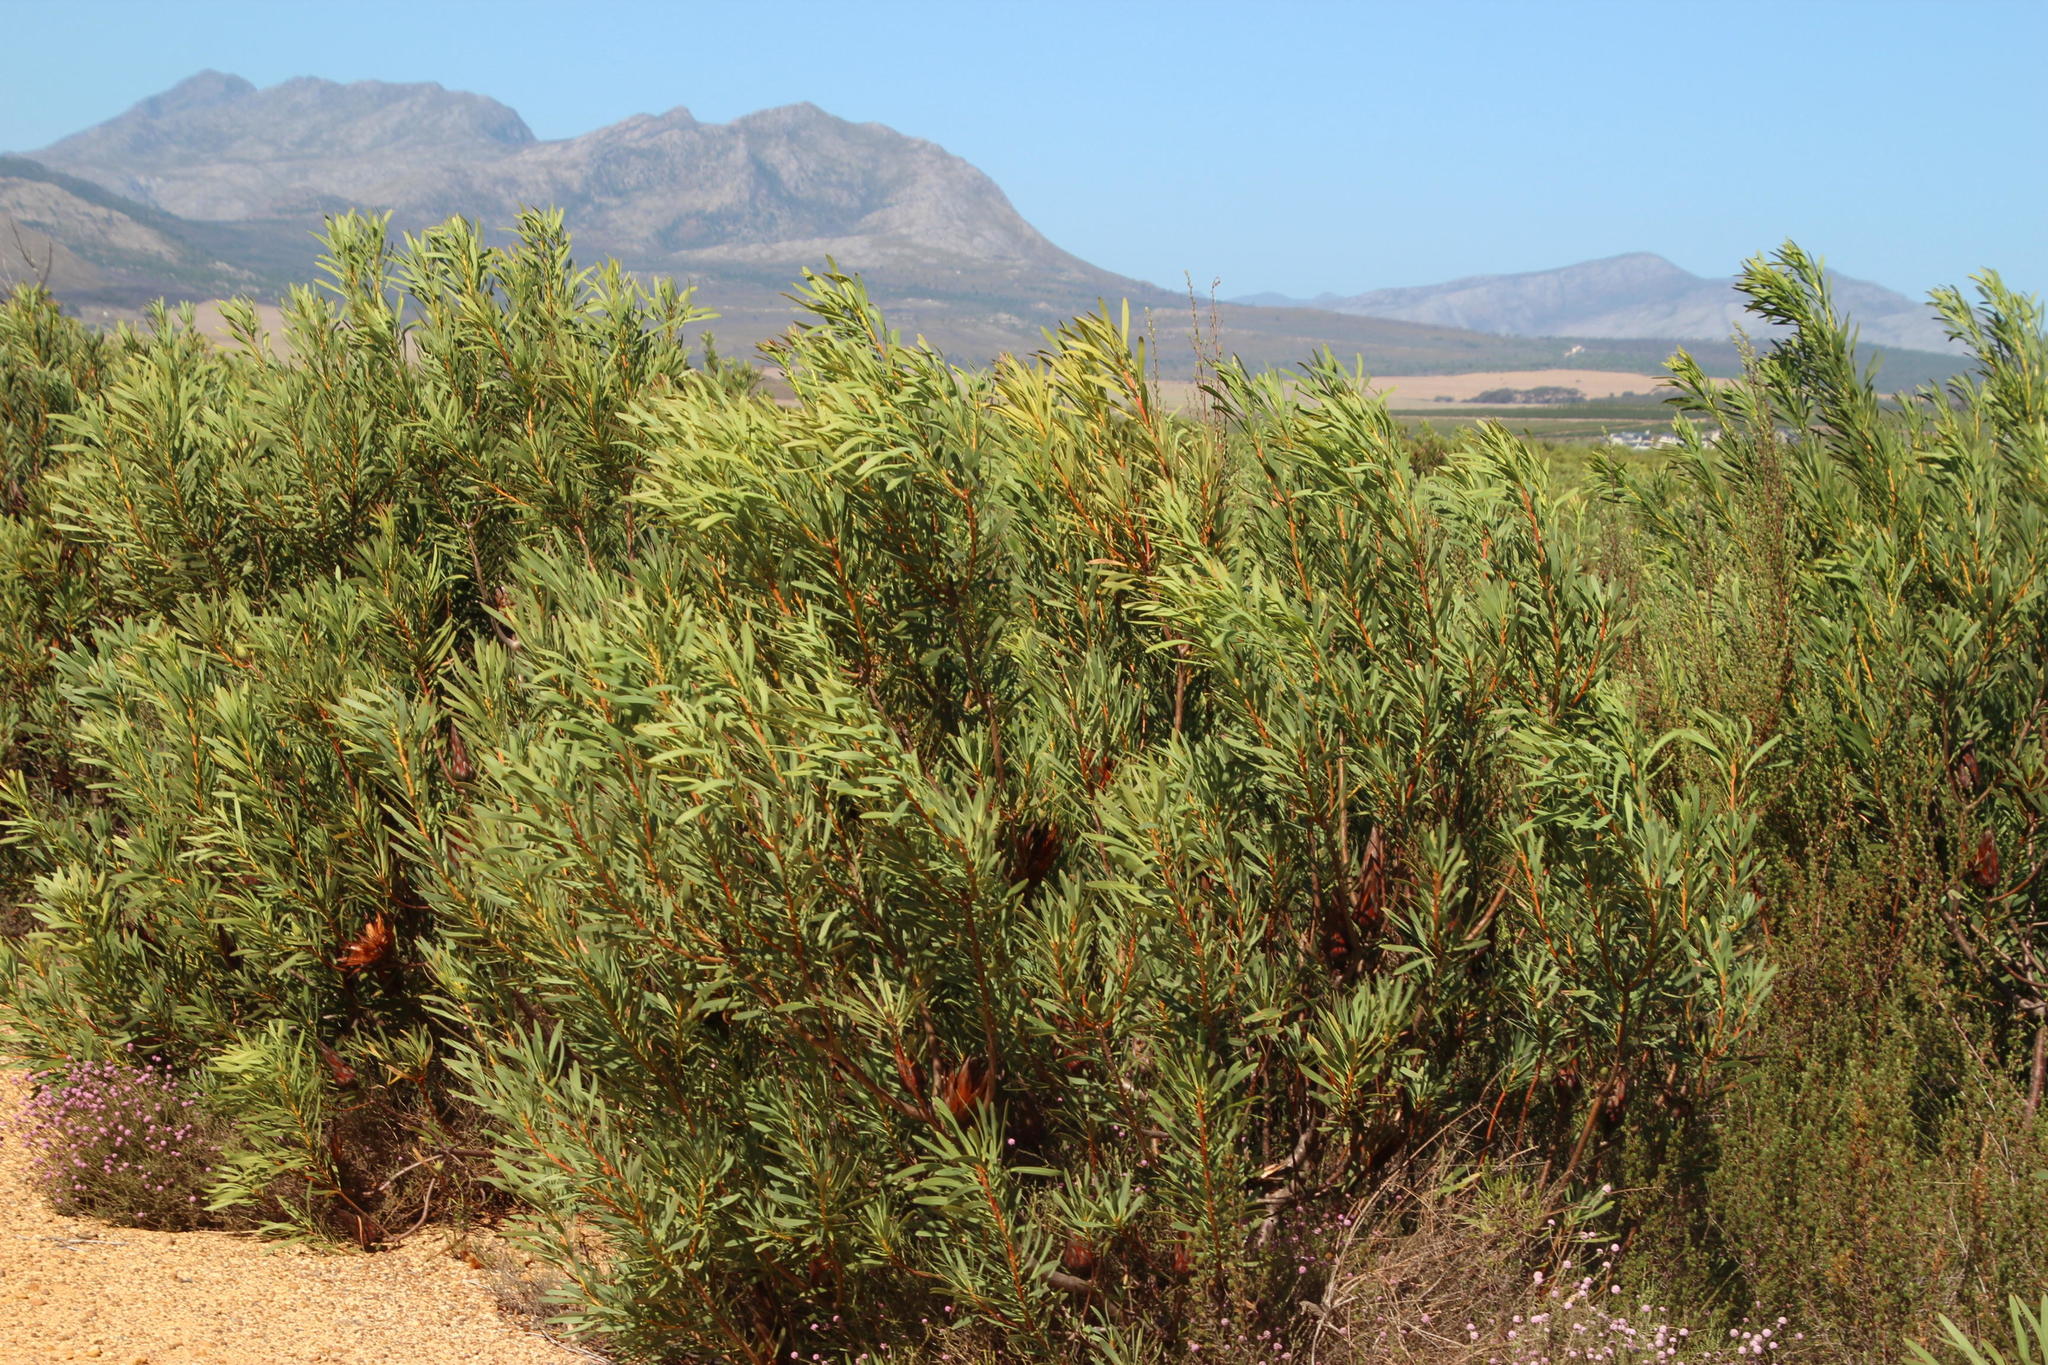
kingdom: Plantae
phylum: Tracheophyta
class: Magnoliopsida
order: Proteales
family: Proteaceae
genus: Protea
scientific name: Protea repens
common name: Sugarbush
